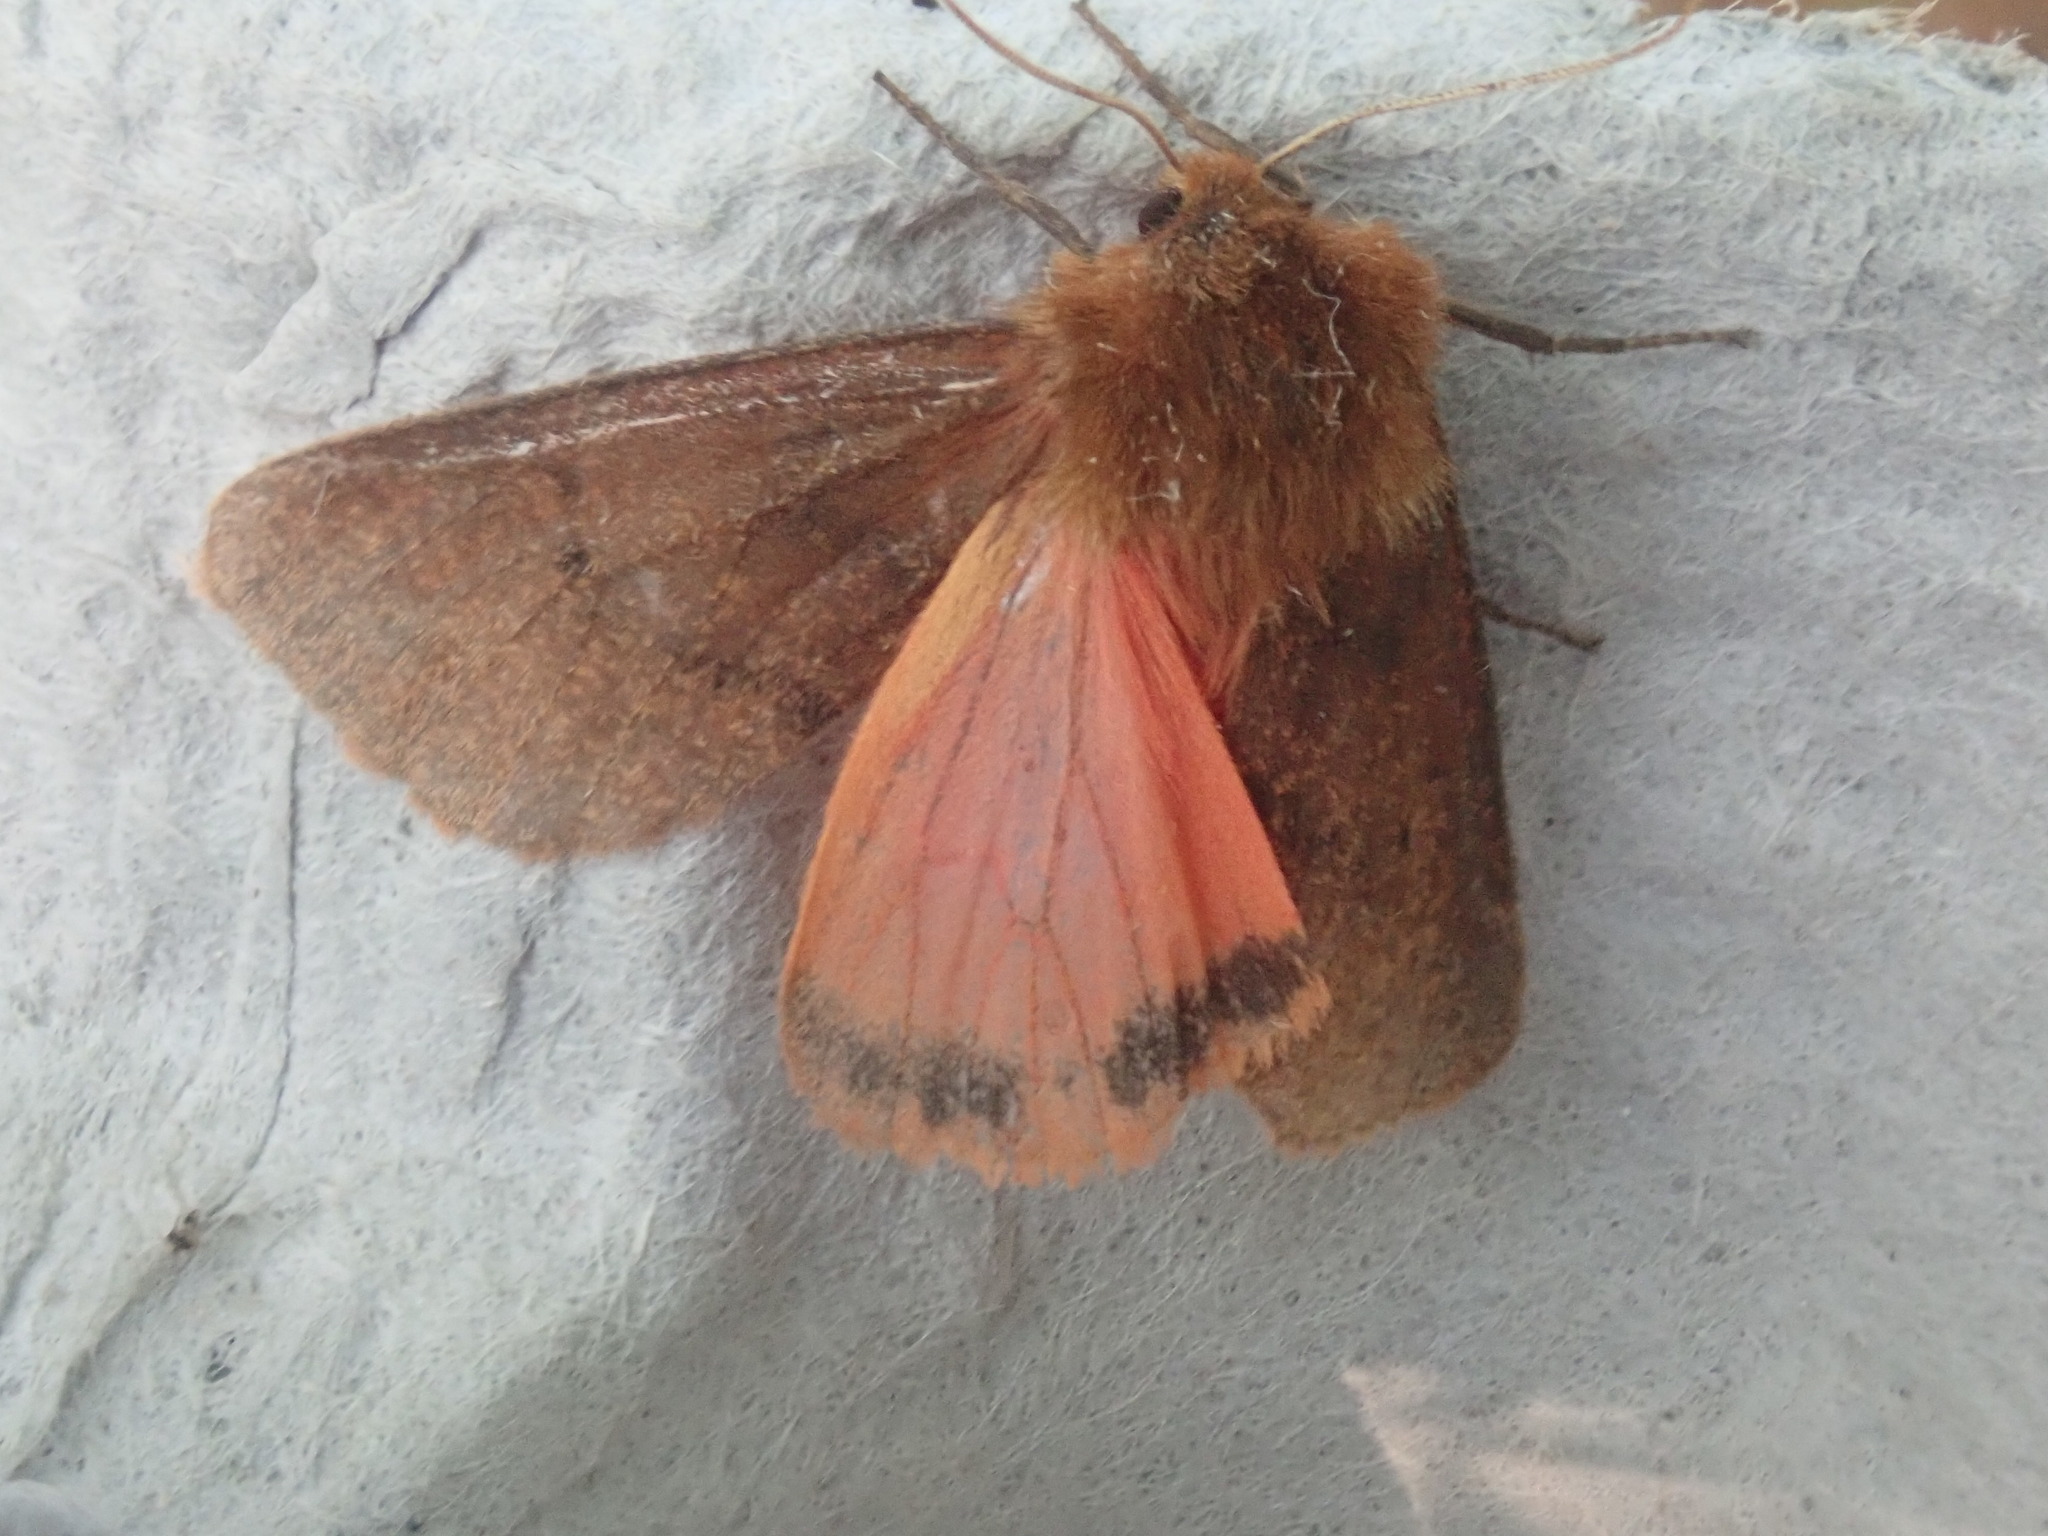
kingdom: Animalia
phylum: Arthropoda
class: Insecta
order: Lepidoptera
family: Erebidae
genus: Phragmatobia
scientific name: Phragmatobia assimilans
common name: Large ruby tiger moth
